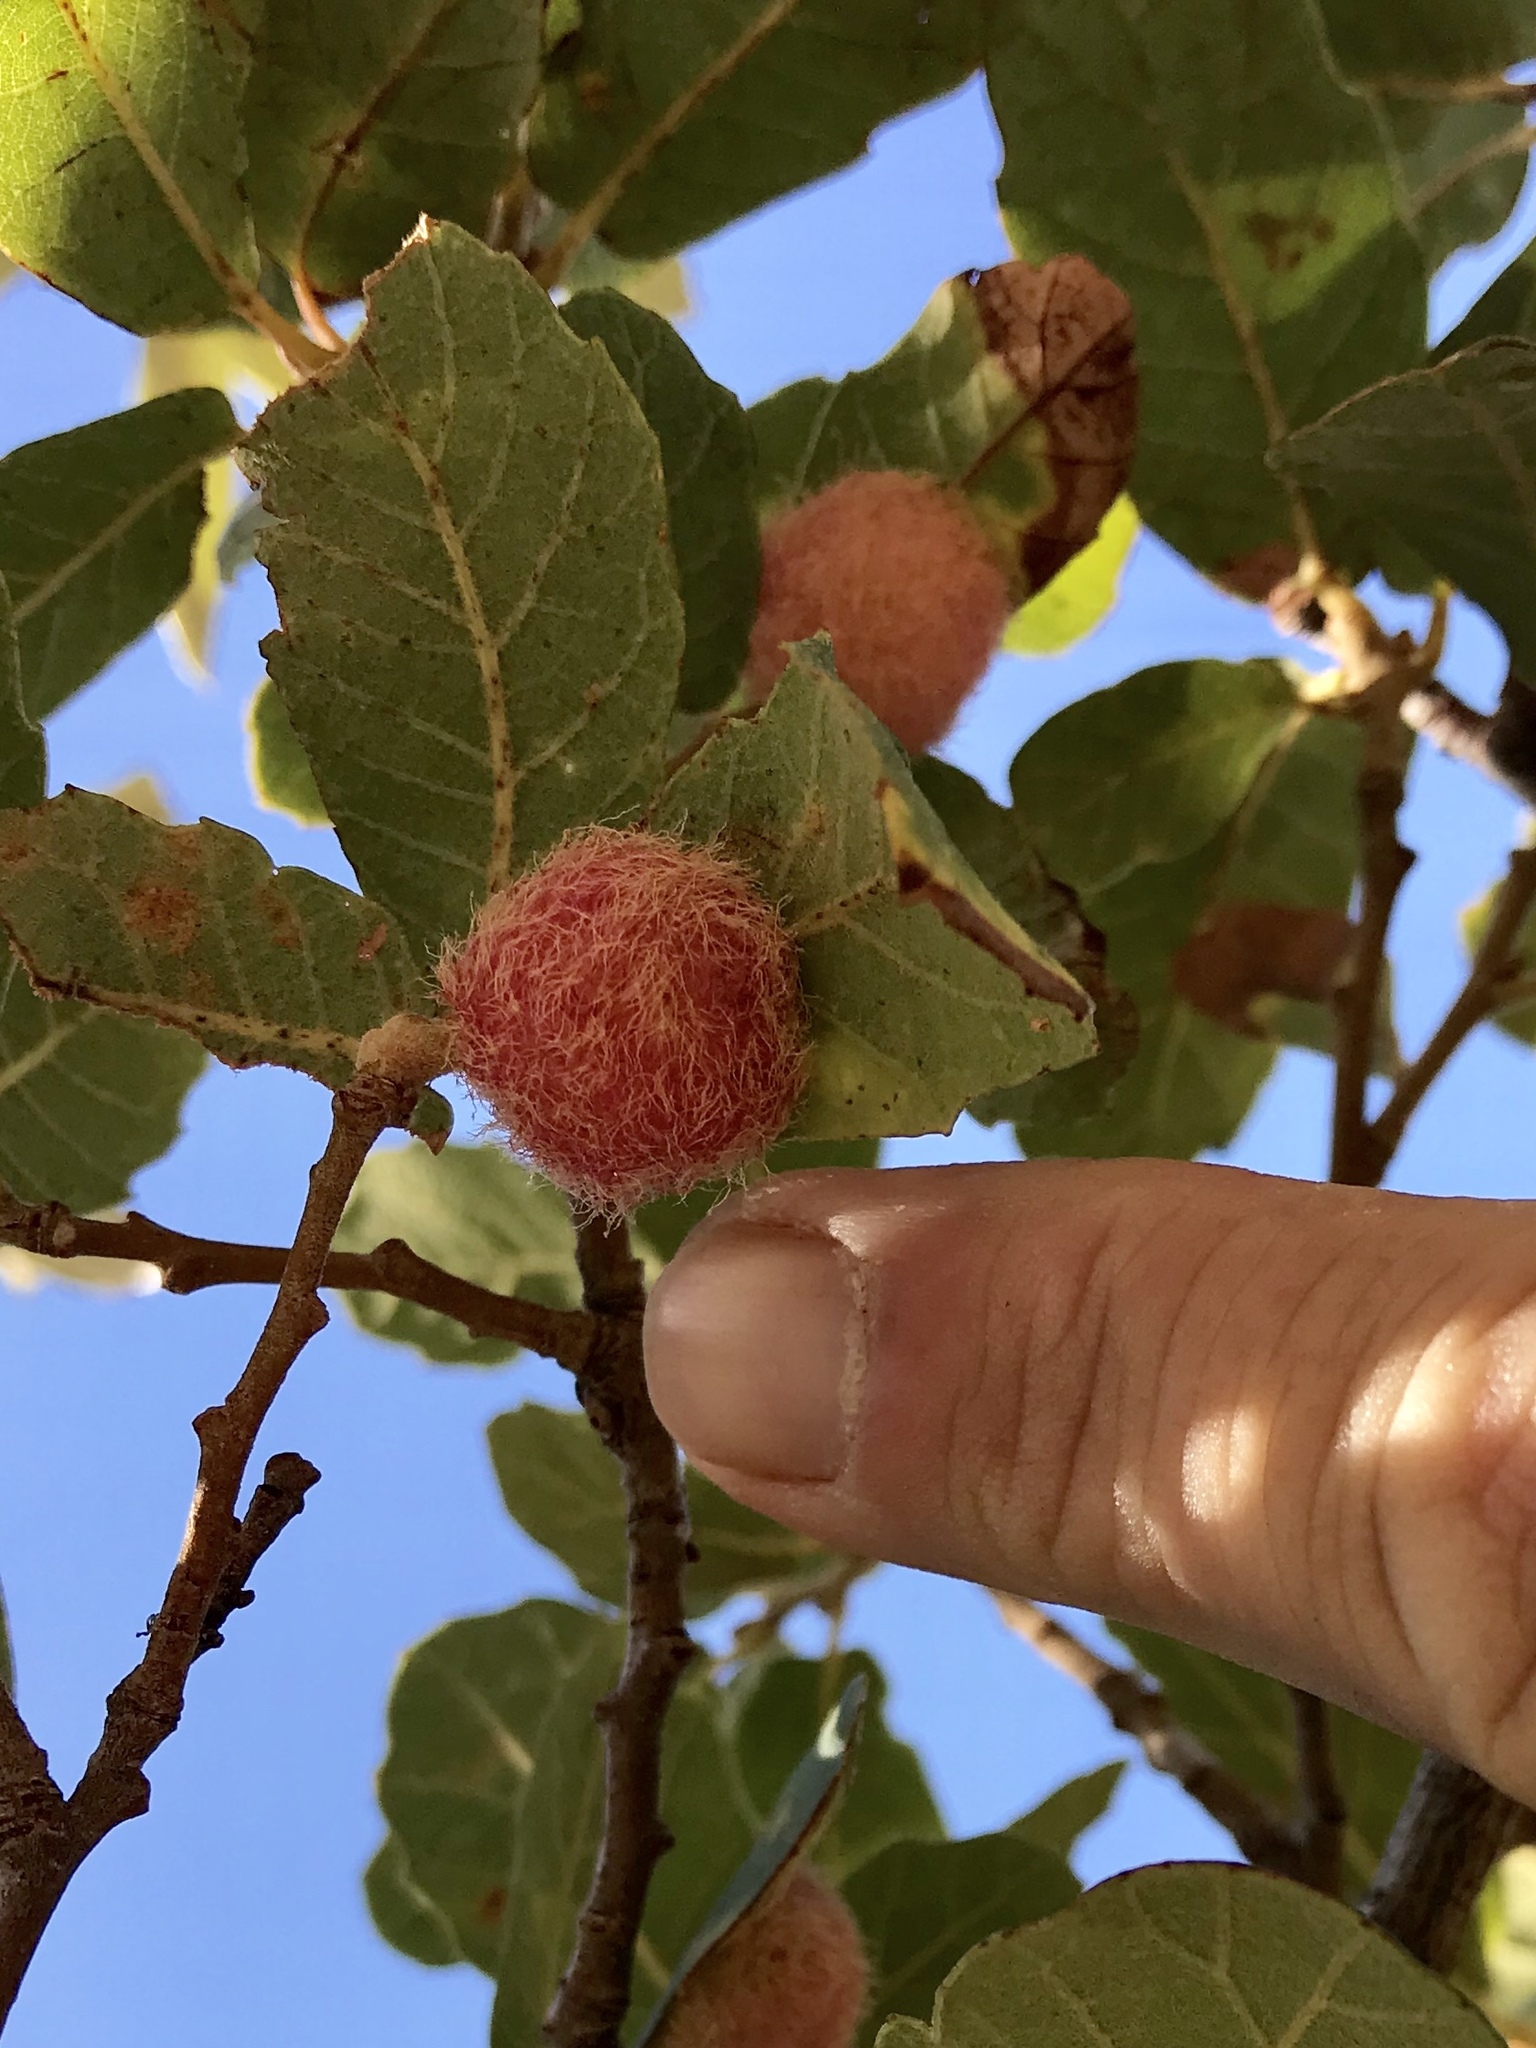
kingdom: Animalia
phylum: Arthropoda
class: Insecta
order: Hymenoptera
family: Cynipidae
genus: Cynips
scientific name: Cynips
